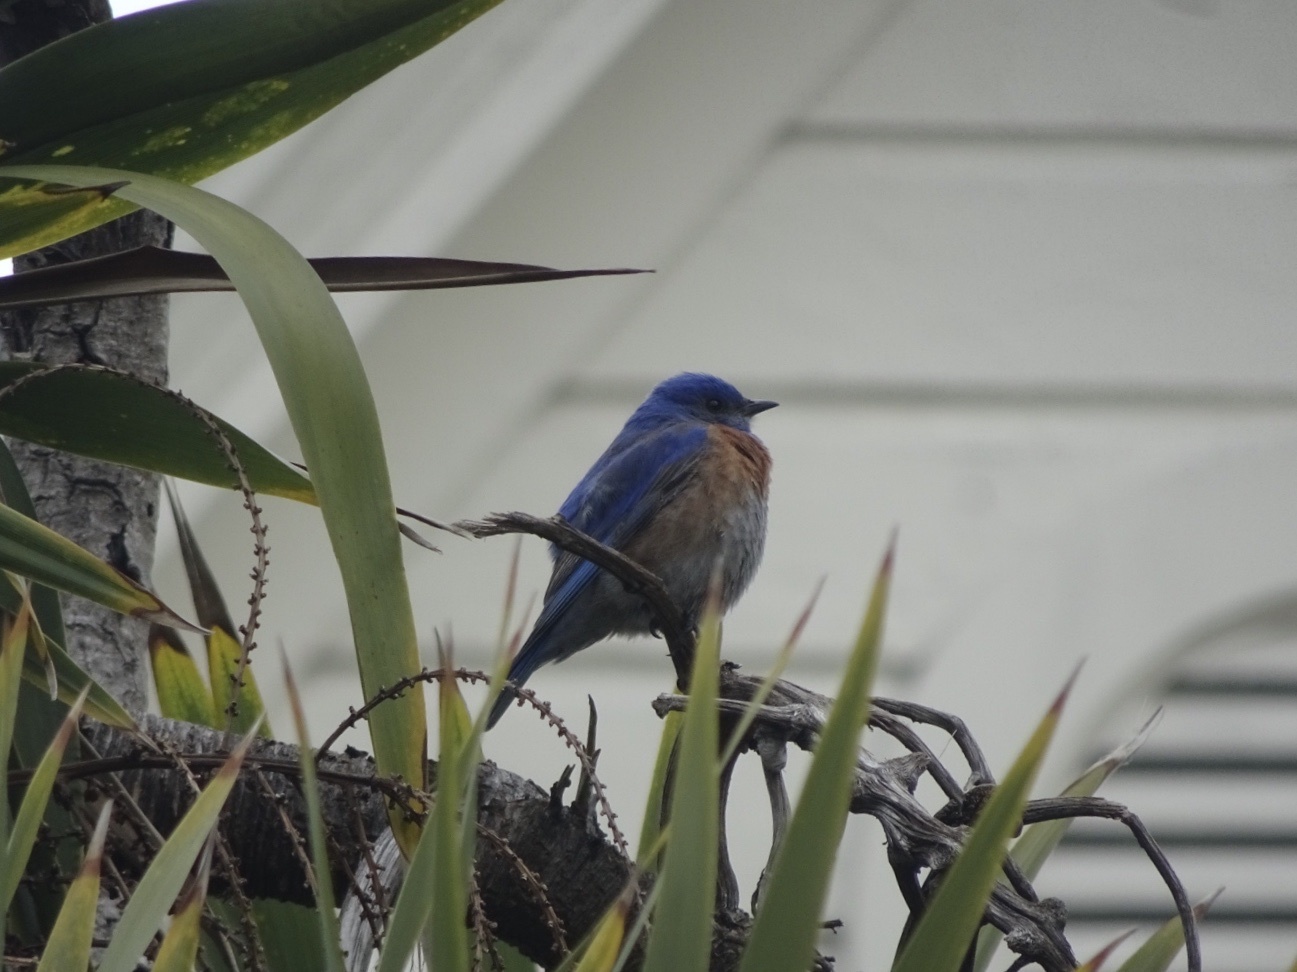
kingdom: Animalia
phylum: Chordata
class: Aves
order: Passeriformes
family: Turdidae
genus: Sialia
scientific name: Sialia mexicana
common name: Western bluebird
